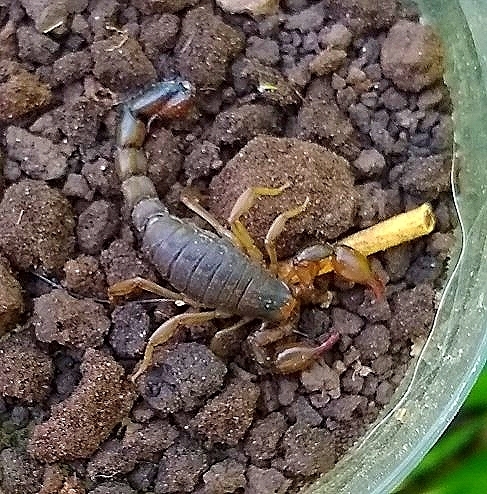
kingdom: Animalia
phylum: Arthropoda
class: Arachnida
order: Scorpiones
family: Bothriuridae
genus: Bothriurus
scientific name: Bothriurus cordubensis
